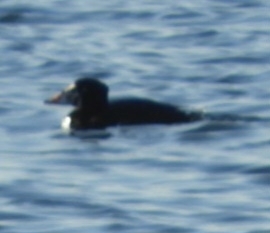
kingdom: Animalia
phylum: Chordata
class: Aves
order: Anseriformes
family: Anatidae
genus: Melanitta
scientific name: Melanitta perspicillata
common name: Surf scoter
